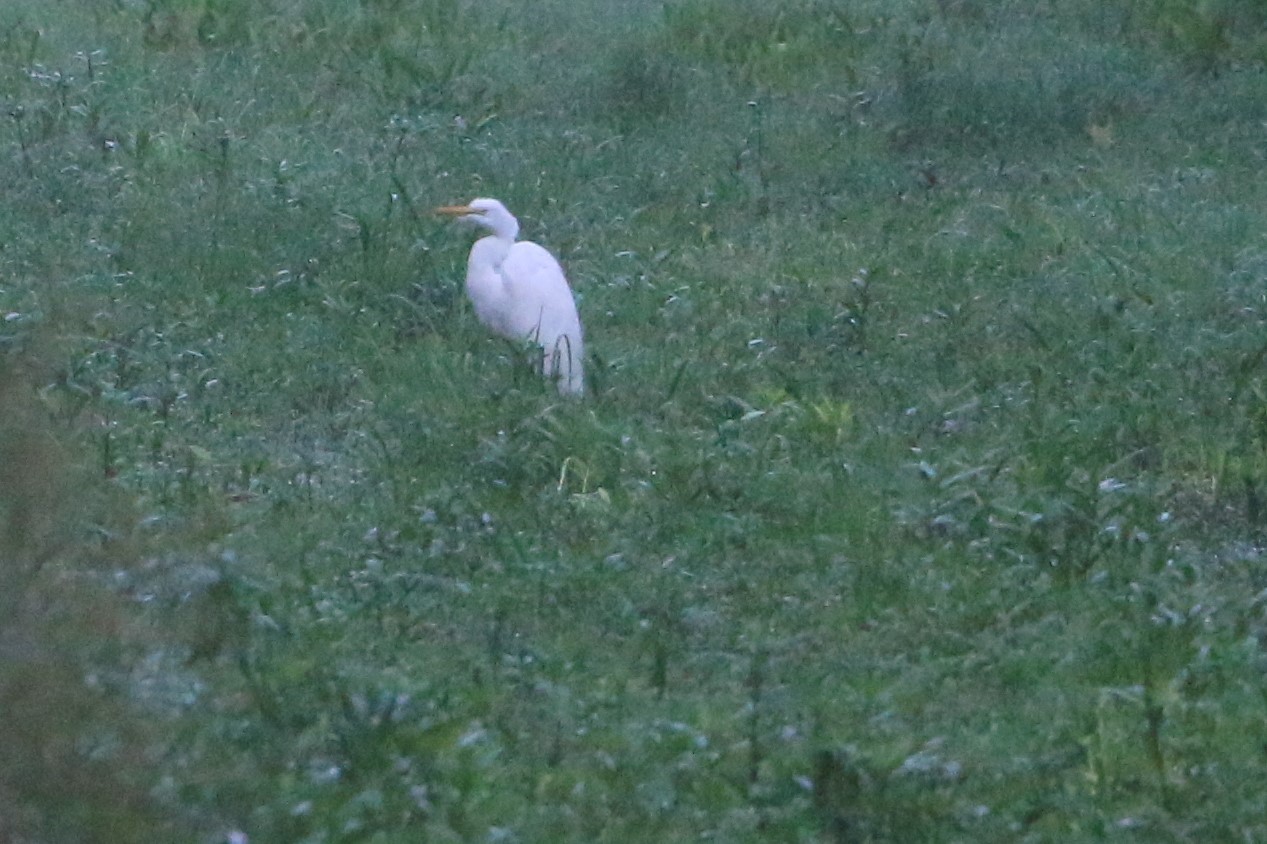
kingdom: Animalia
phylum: Chordata
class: Aves
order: Pelecaniformes
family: Ardeidae
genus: Ardea
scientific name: Ardea alba
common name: Great egret
